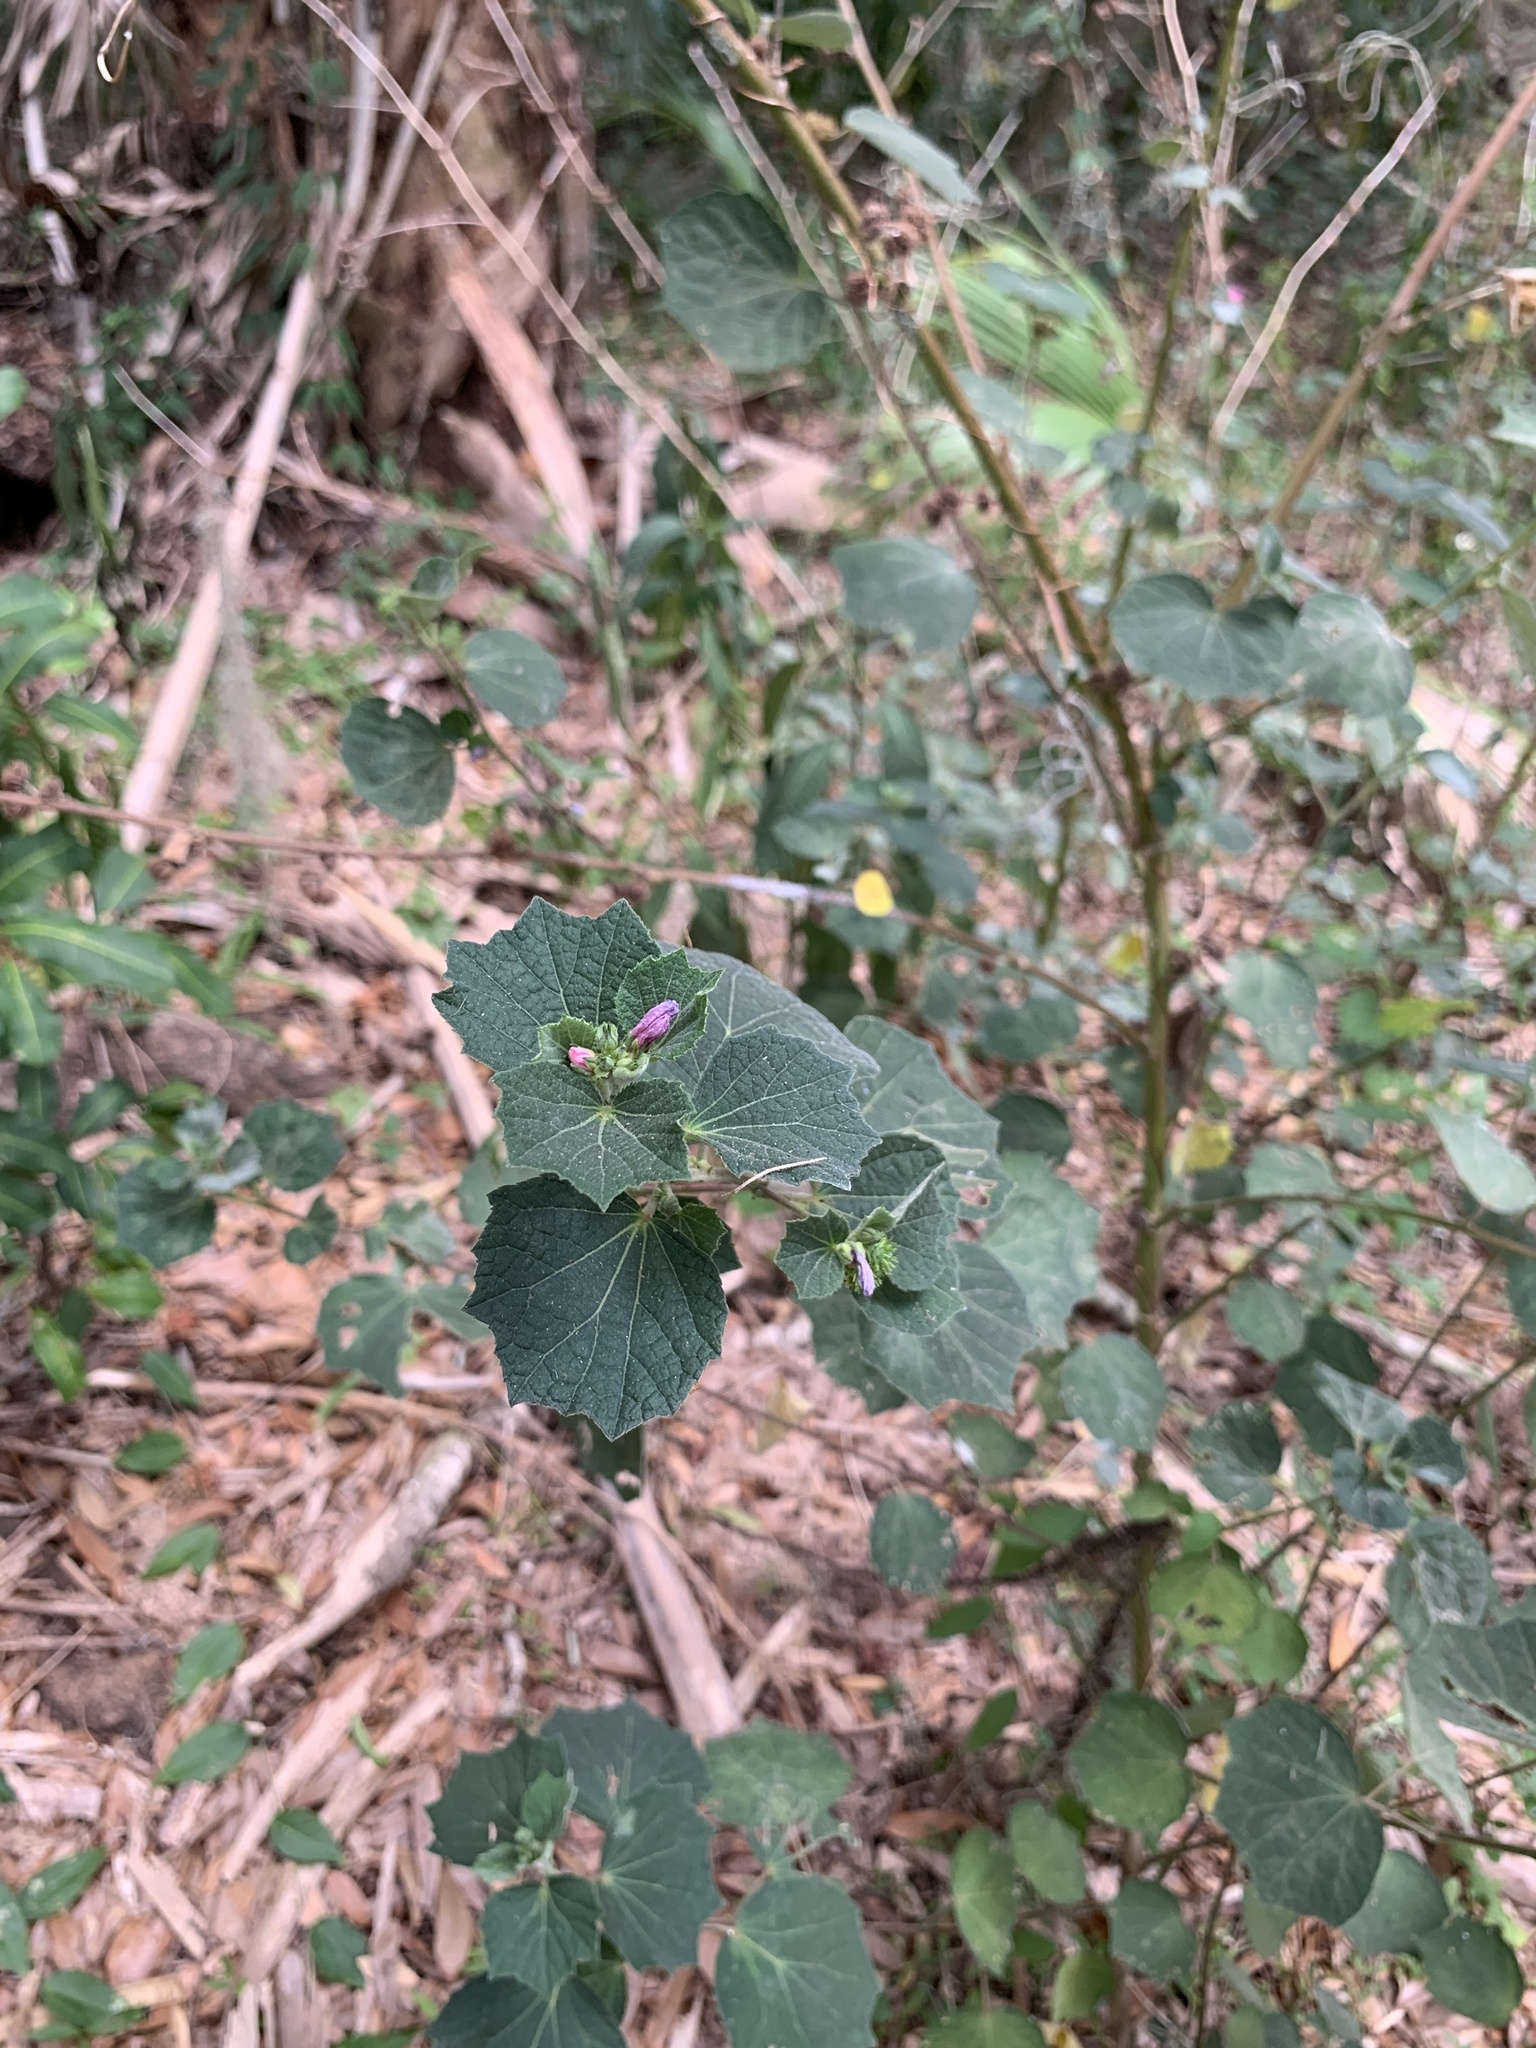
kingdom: Plantae
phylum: Tracheophyta
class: Magnoliopsida
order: Malvales
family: Malvaceae
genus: Urena
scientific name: Urena lobata
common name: Caesarweed
